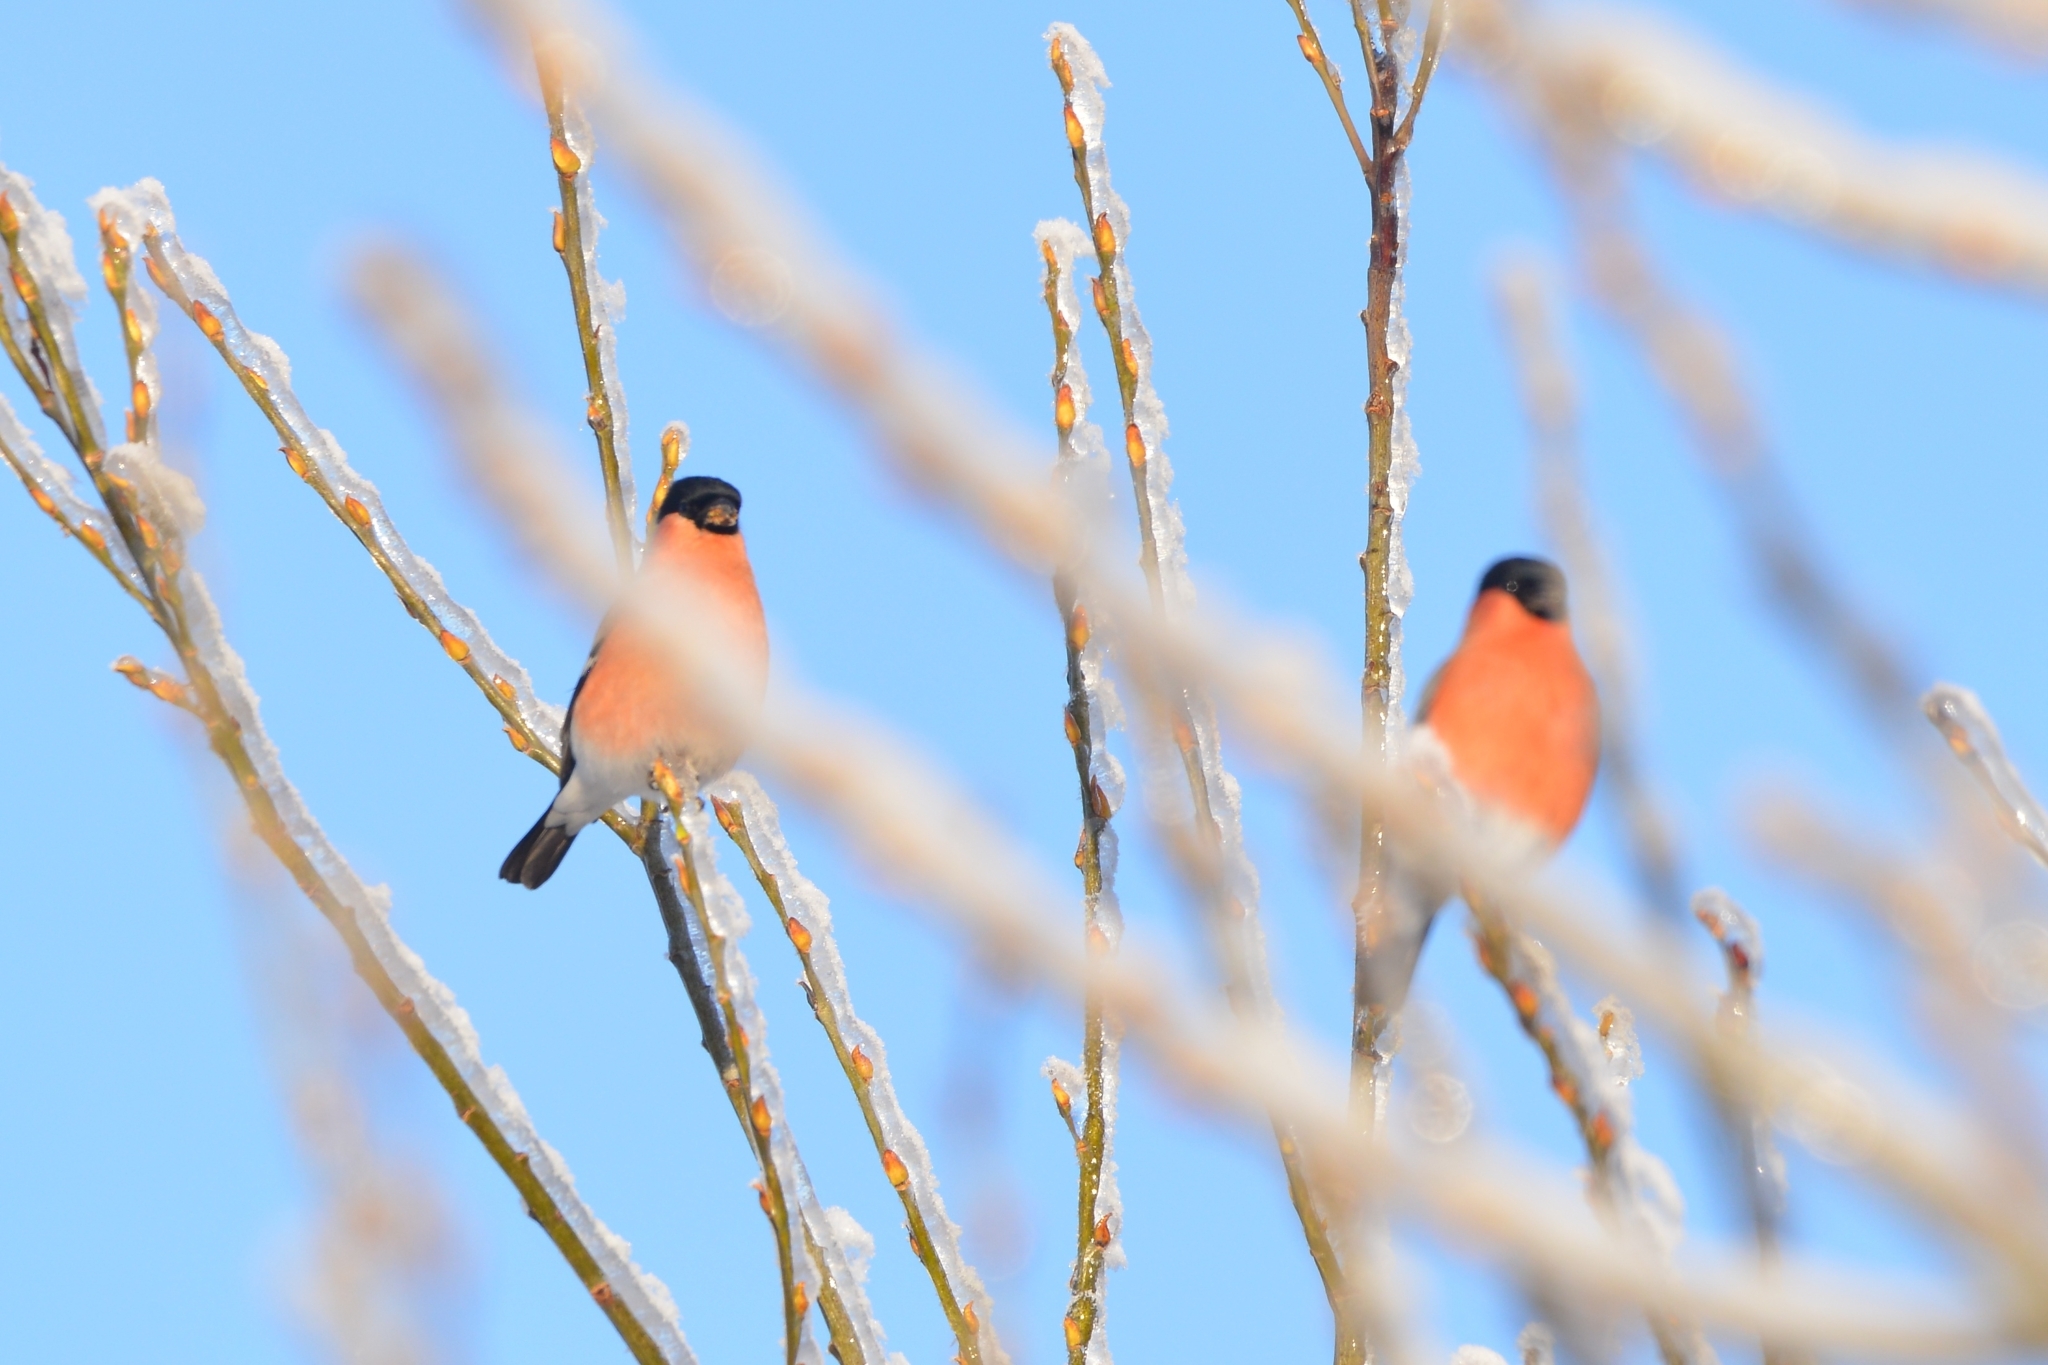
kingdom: Animalia
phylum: Chordata
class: Aves
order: Passeriformes
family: Fringillidae
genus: Pyrrhula
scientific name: Pyrrhula pyrrhula
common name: Eurasian bullfinch
